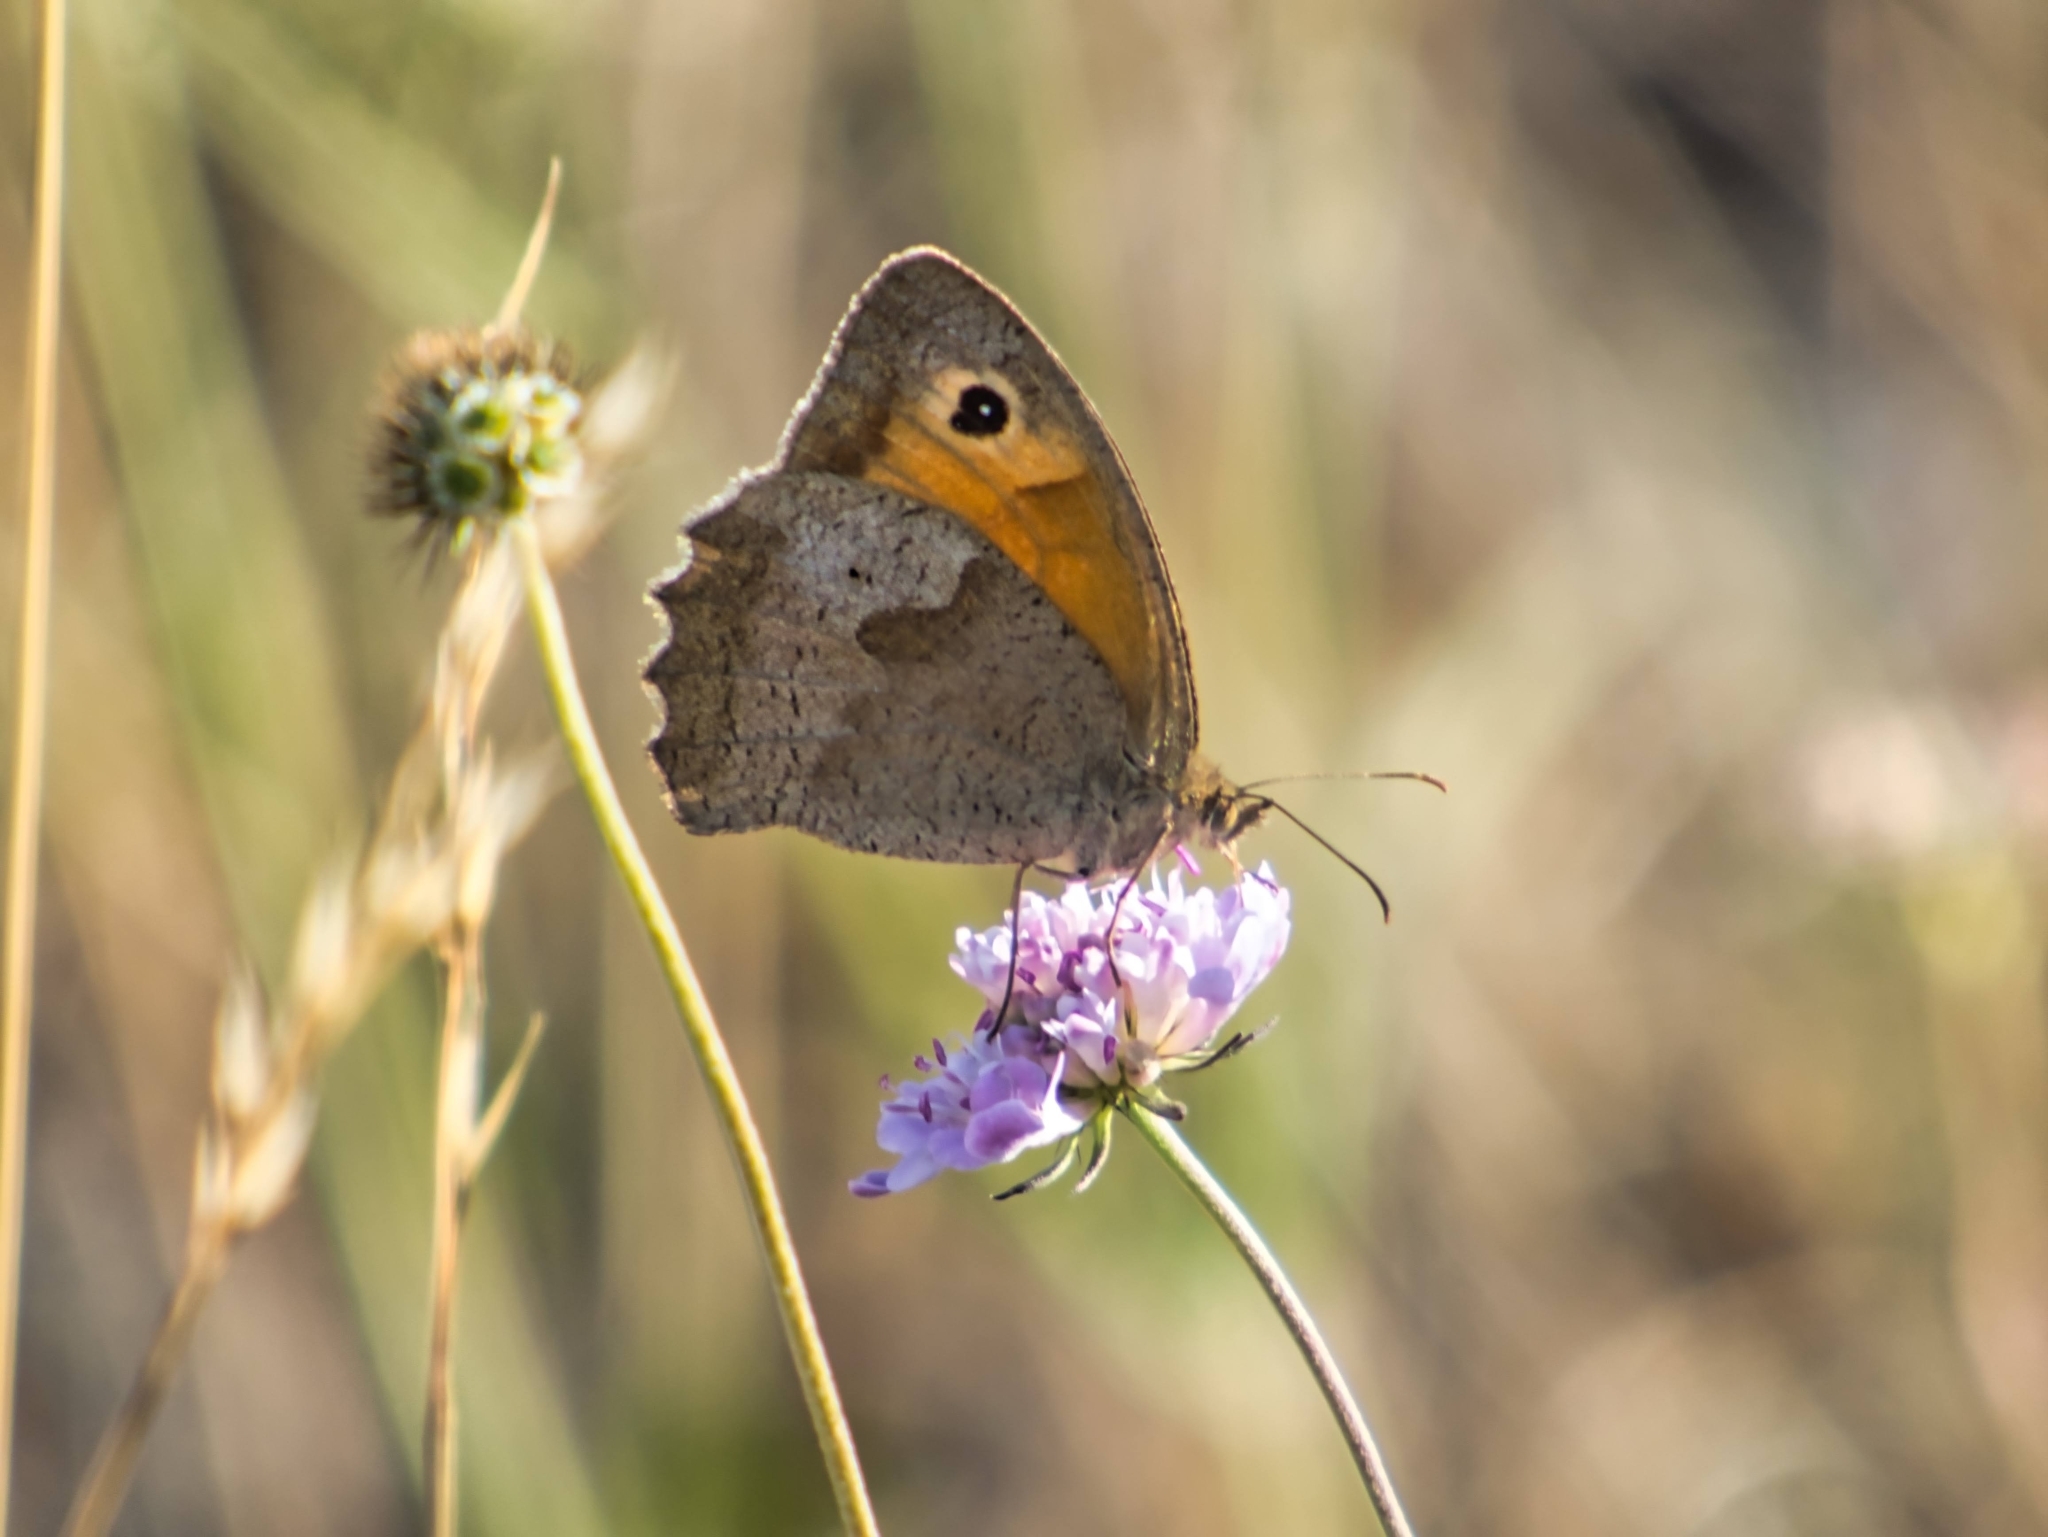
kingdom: Animalia
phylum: Arthropoda
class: Insecta
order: Lepidoptera
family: Nymphalidae
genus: Maniola
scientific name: Maniola jurtina
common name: Meadow brown
